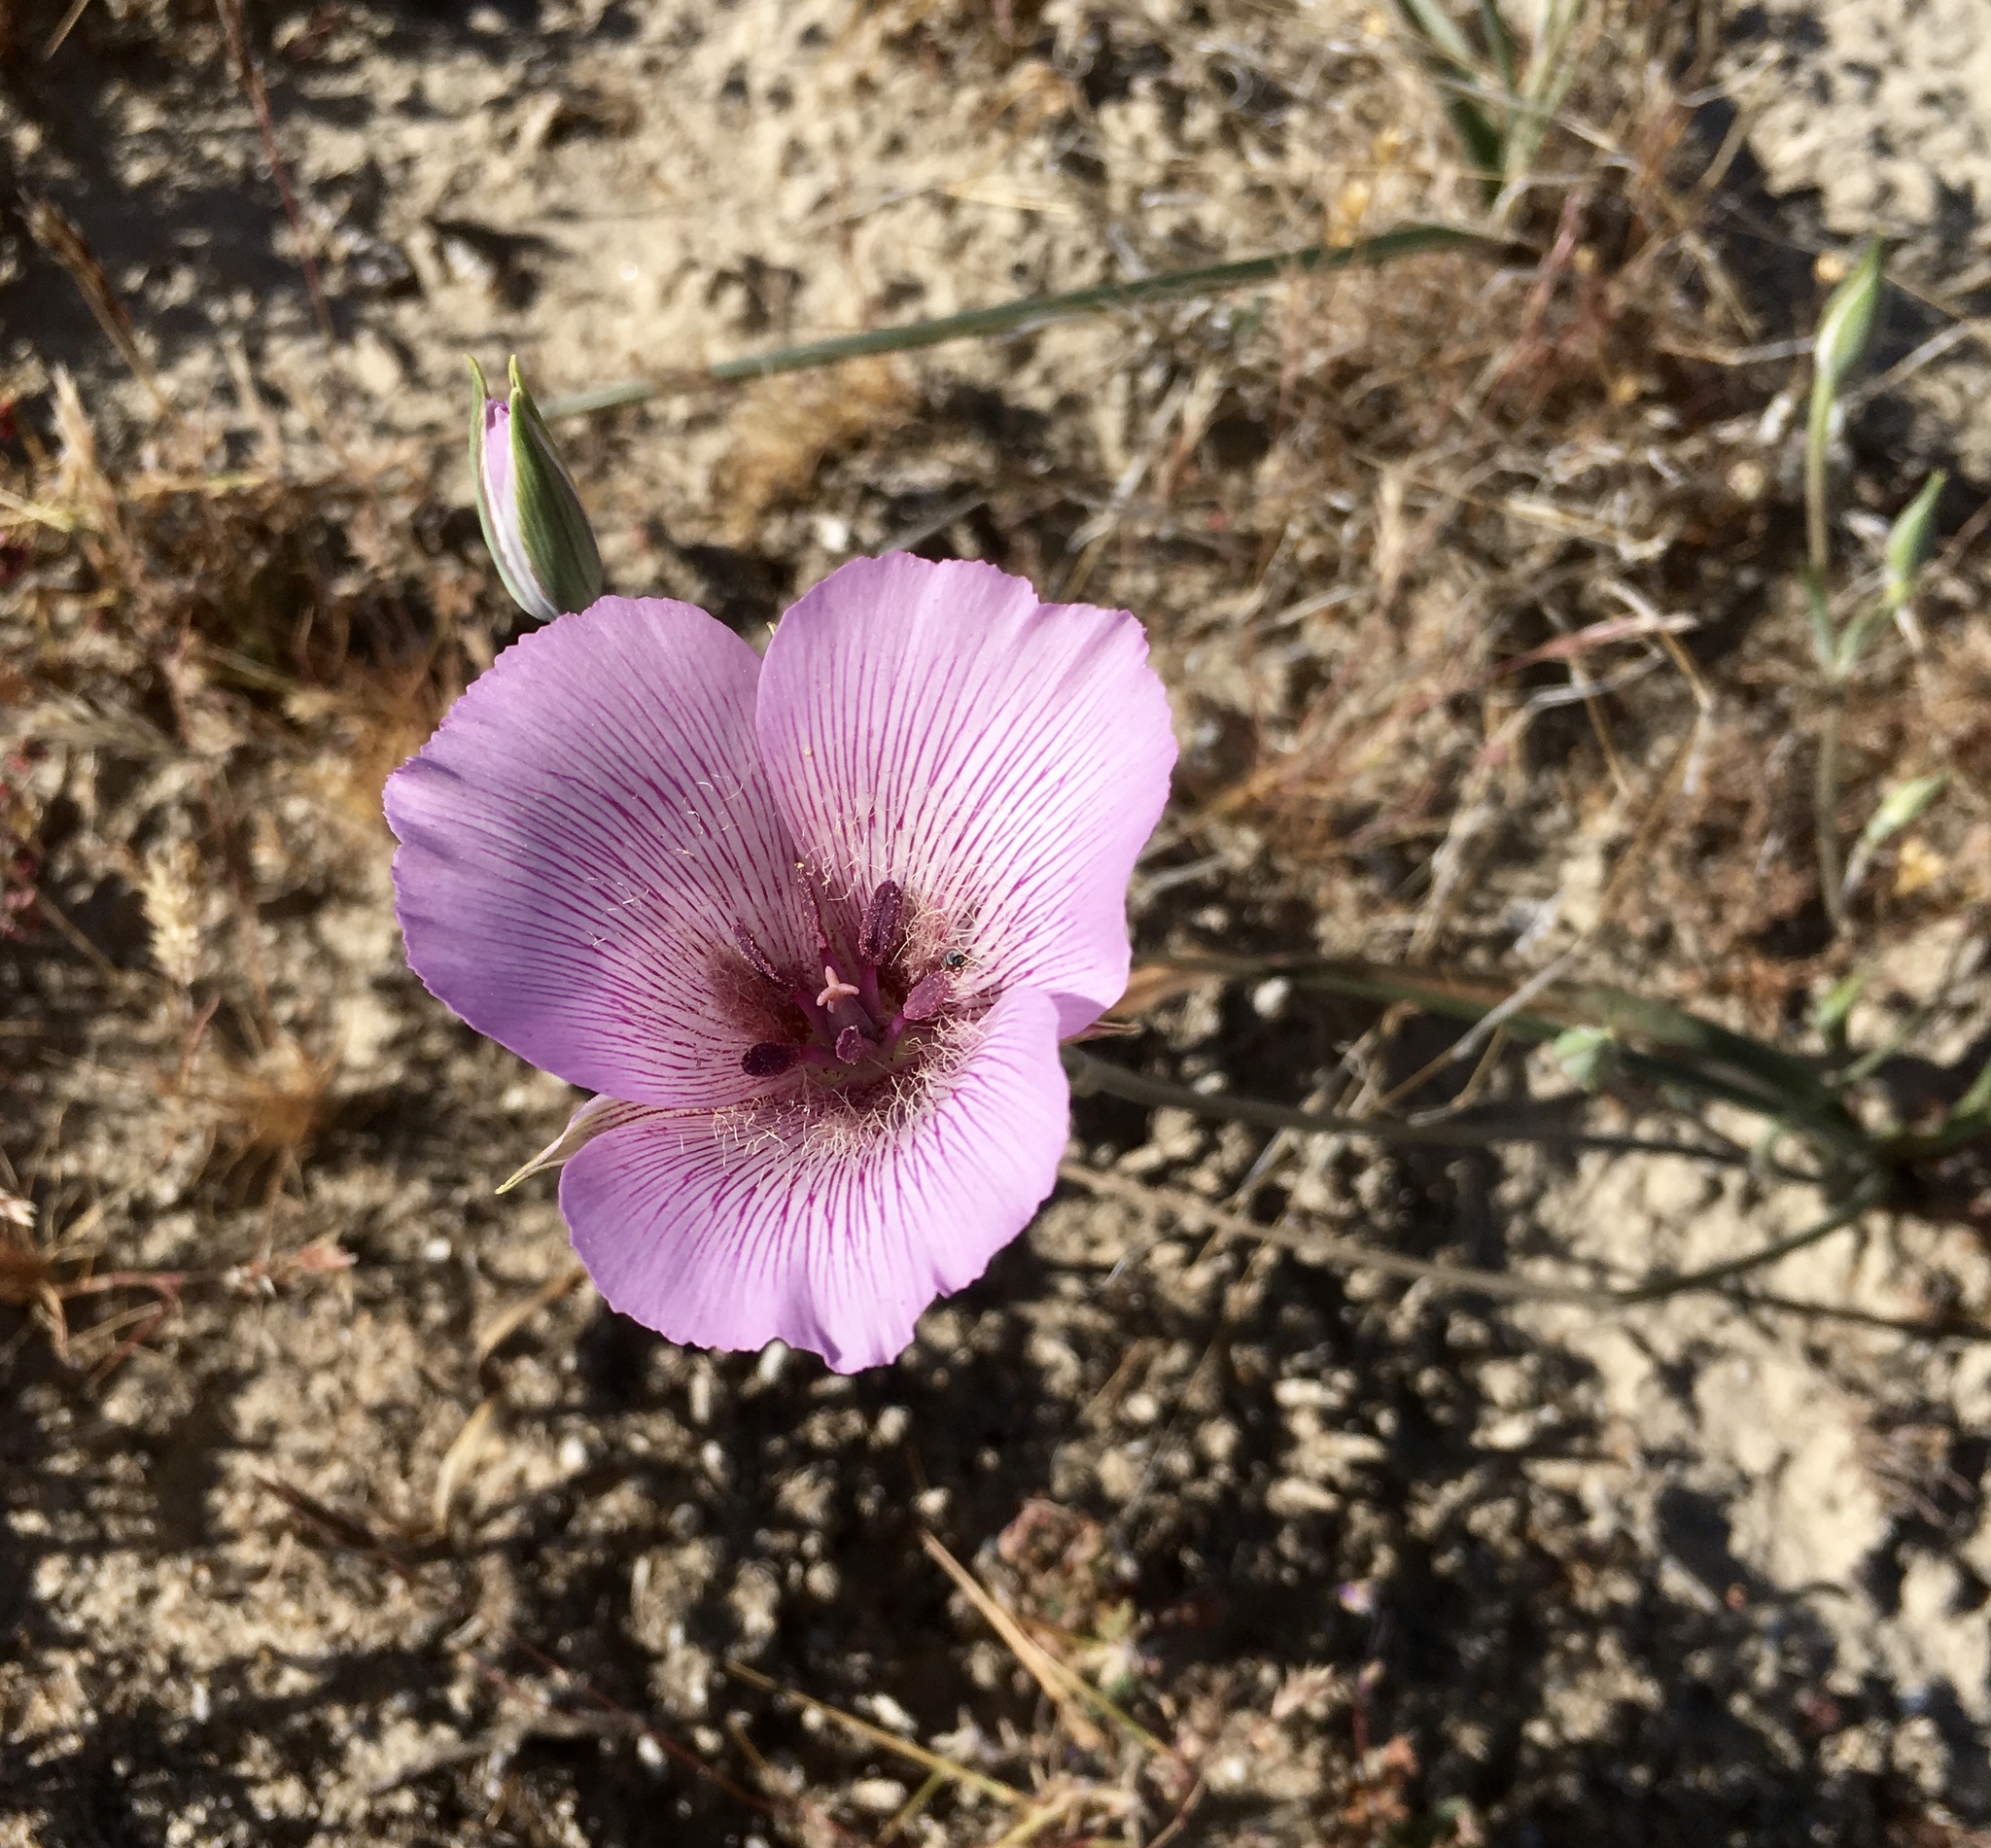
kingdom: Plantae
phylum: Tracheophyta
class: Liliopsida
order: Liliales
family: Liliaceae
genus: Calochortus
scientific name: Calochortus striatus
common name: Alkali mariposa-lily
